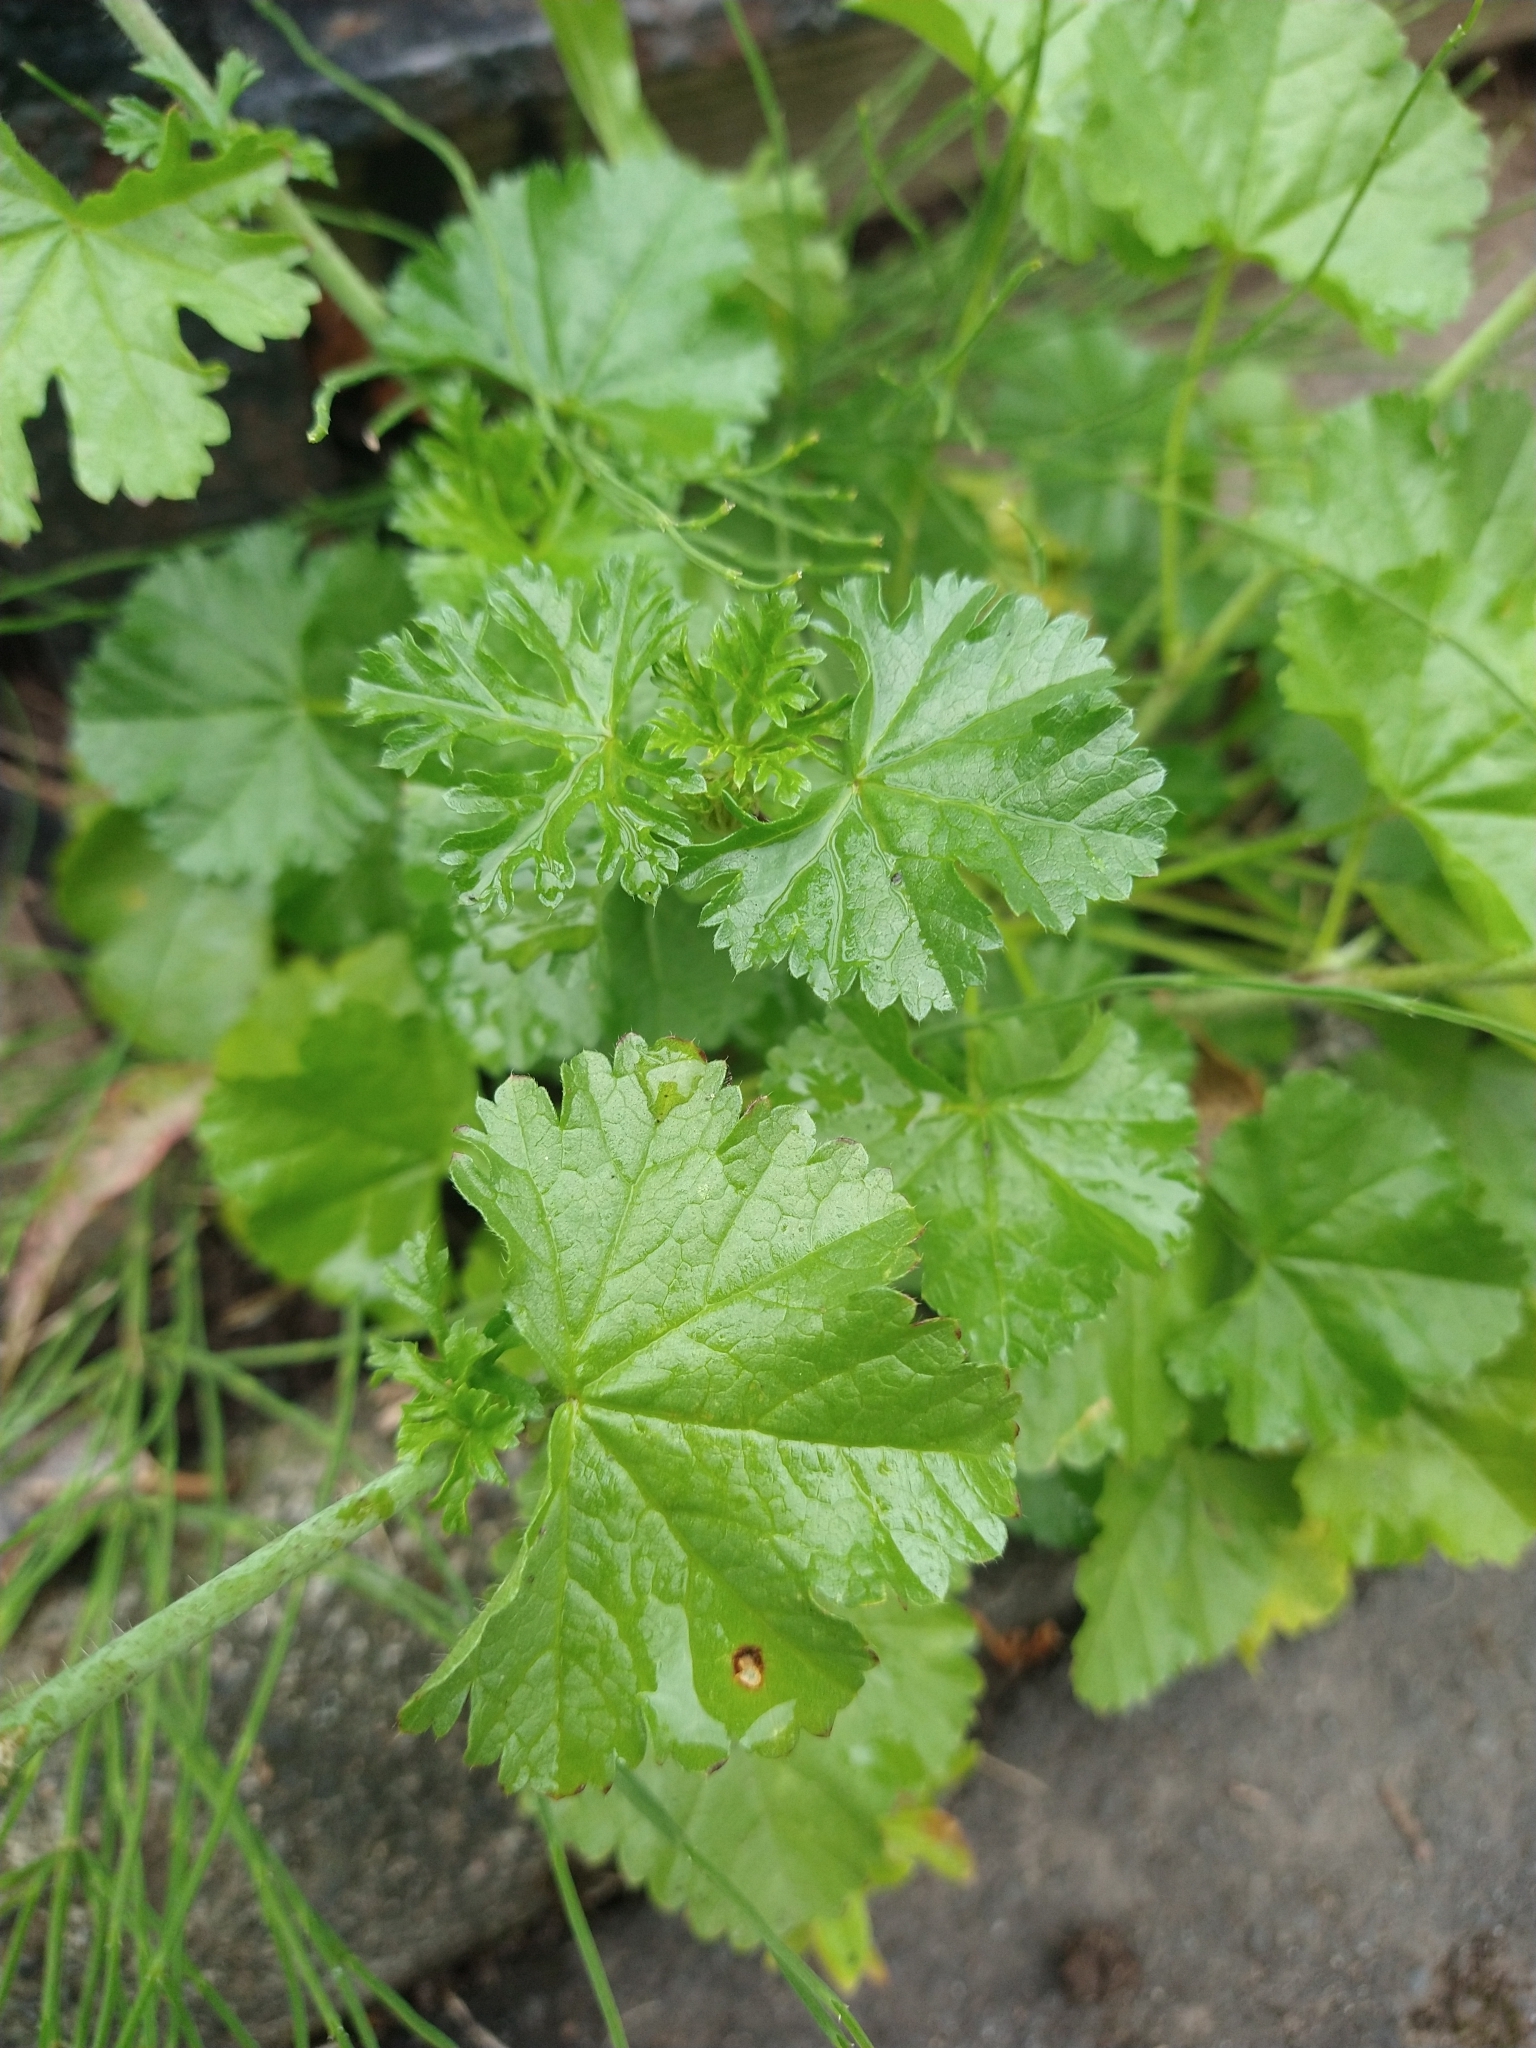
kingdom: Plantae
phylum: Tracheophyta
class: Magnoliopsida
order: Malvales
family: Malvaceae
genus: Malva
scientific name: Malva moschata
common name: Musk mallow
